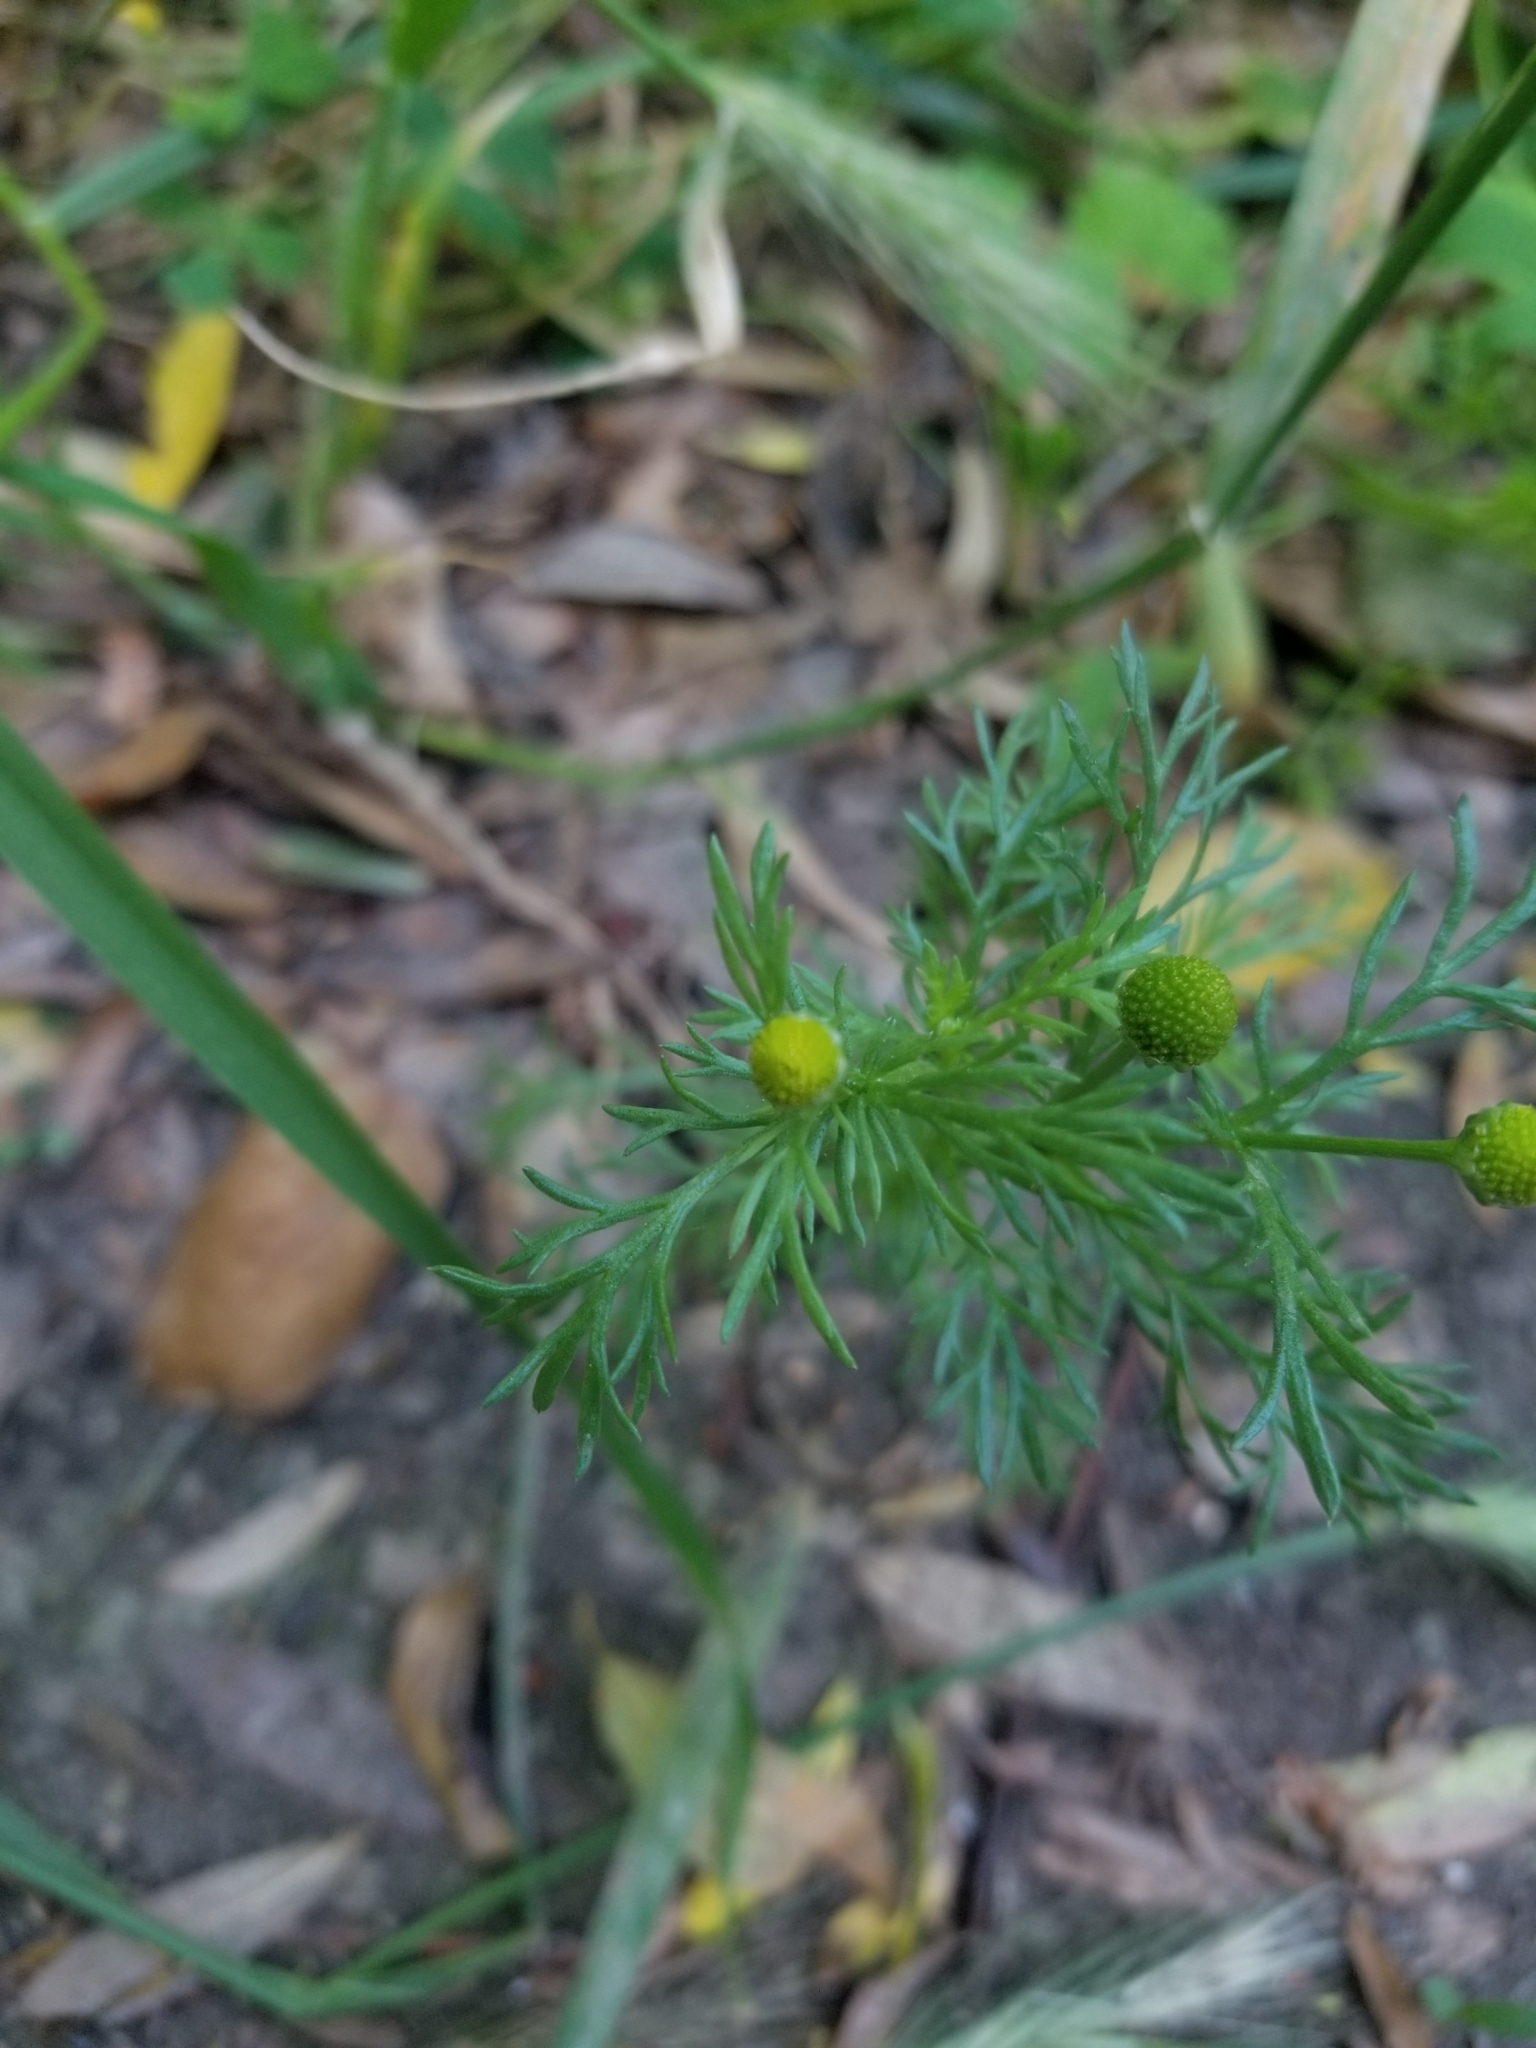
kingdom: Plantae
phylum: Tracheophyta
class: Magnoliopsida
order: Asterales
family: Asteraceae
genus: Matricaria
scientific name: Matricaria discoidea
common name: Disc mayweed
